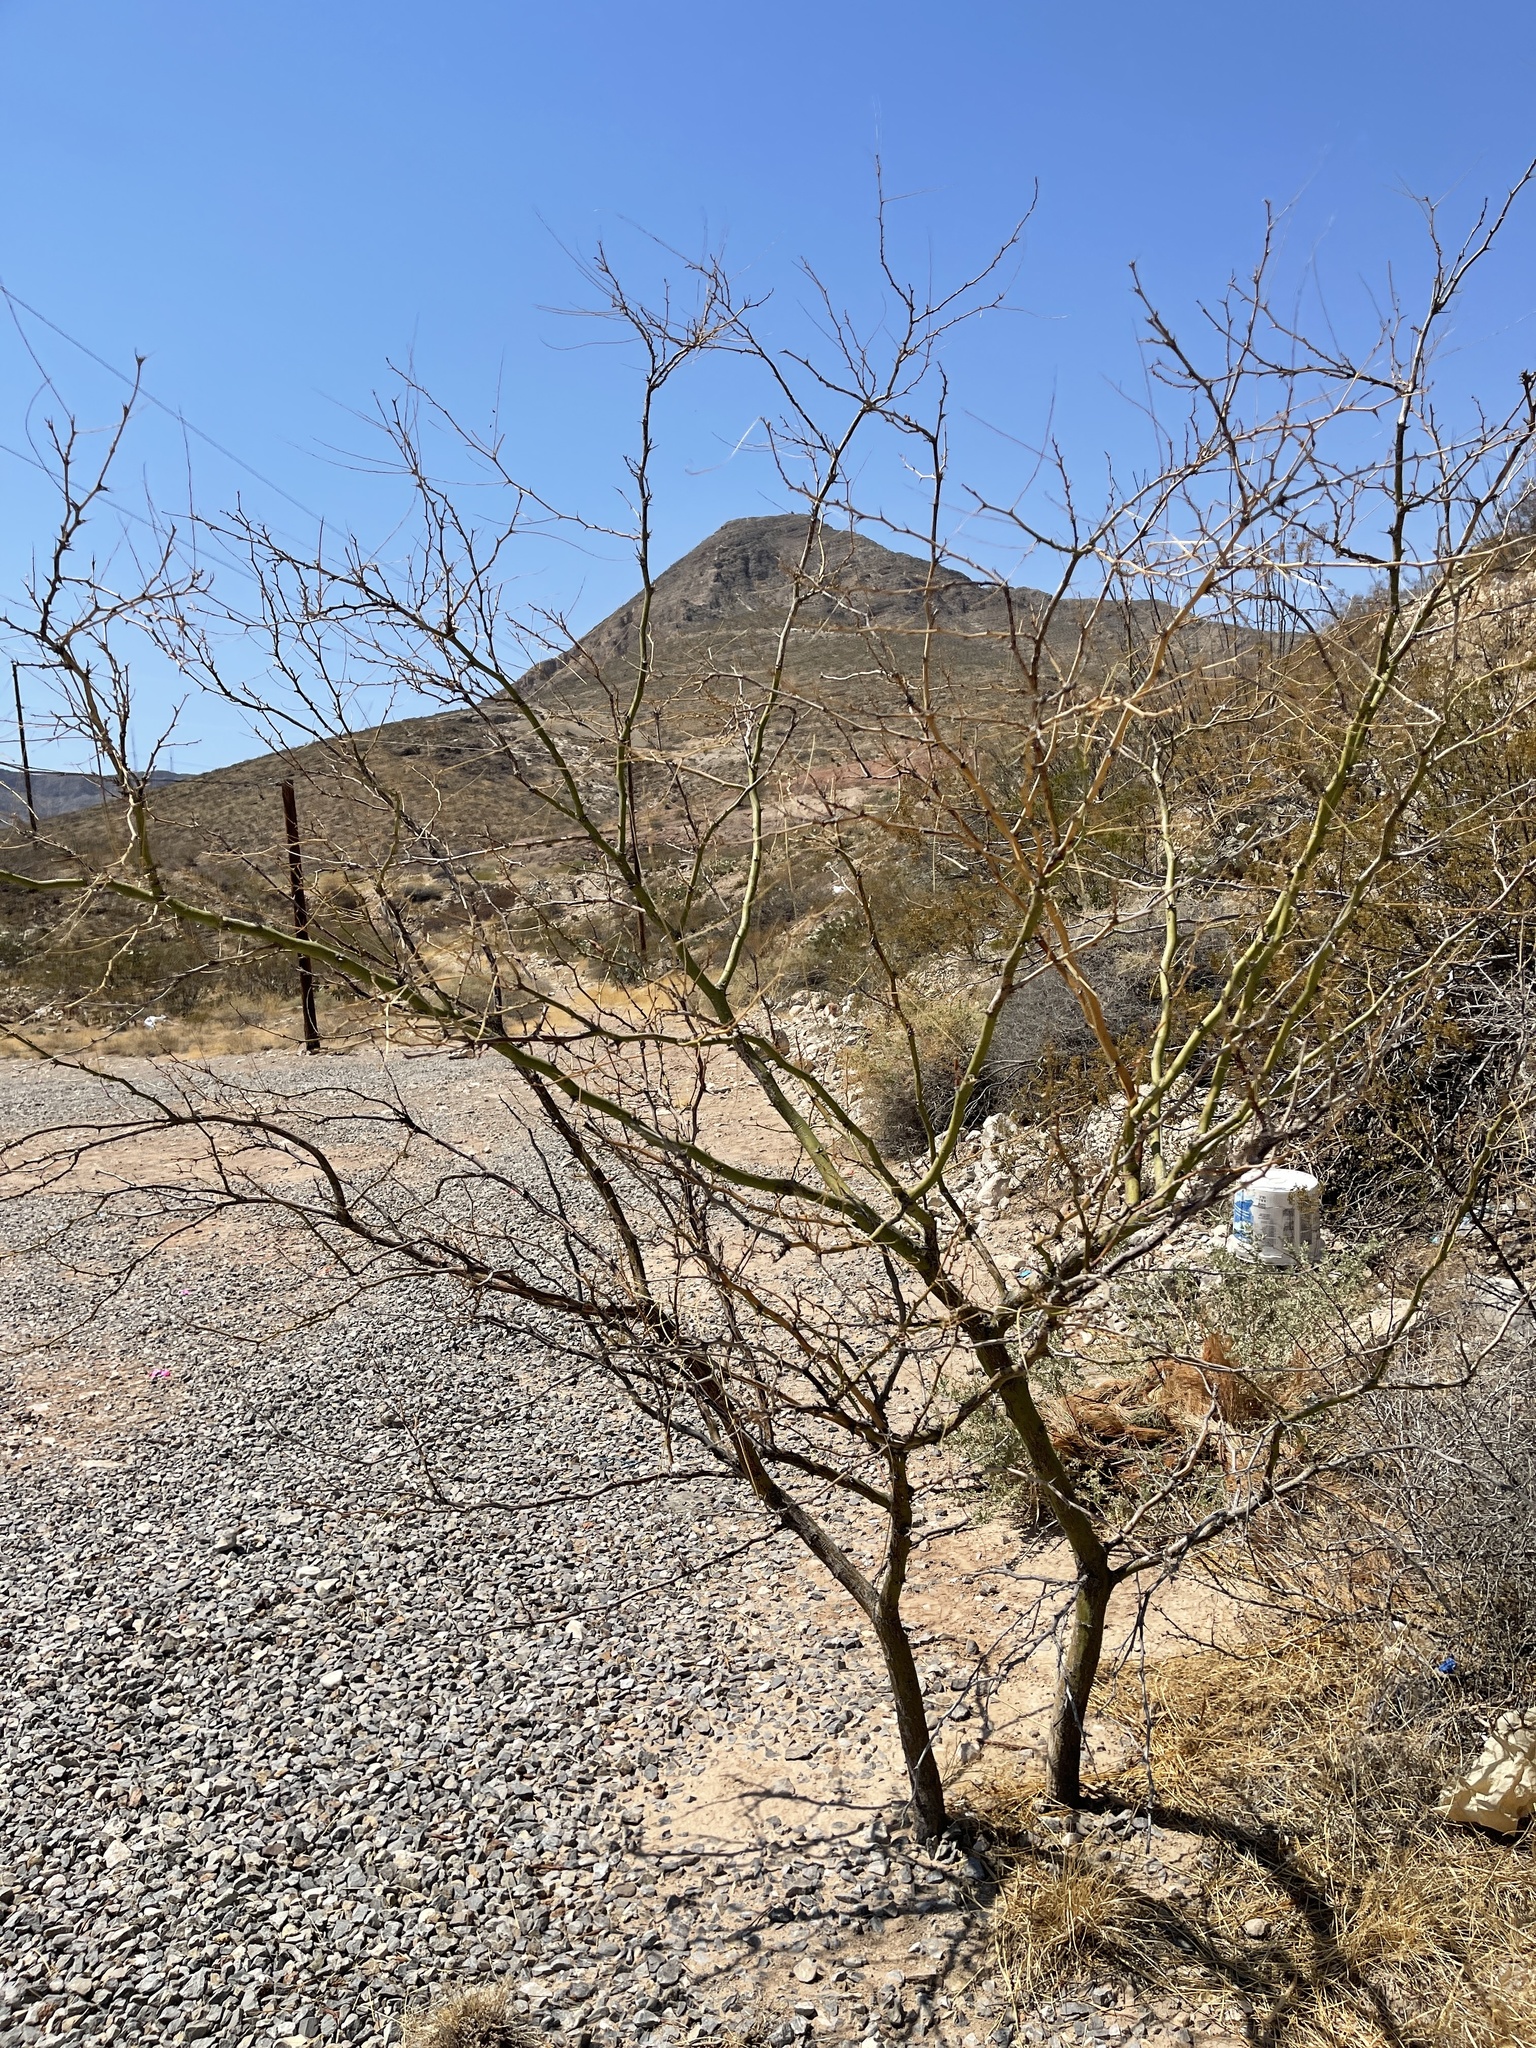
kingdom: Plantae
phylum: Tracheophyta
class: Magnoliopsida
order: Fabales
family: Fabaceae
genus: Parkinsonia
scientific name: Parkinsonia aculeata
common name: Jerusalem thorn
